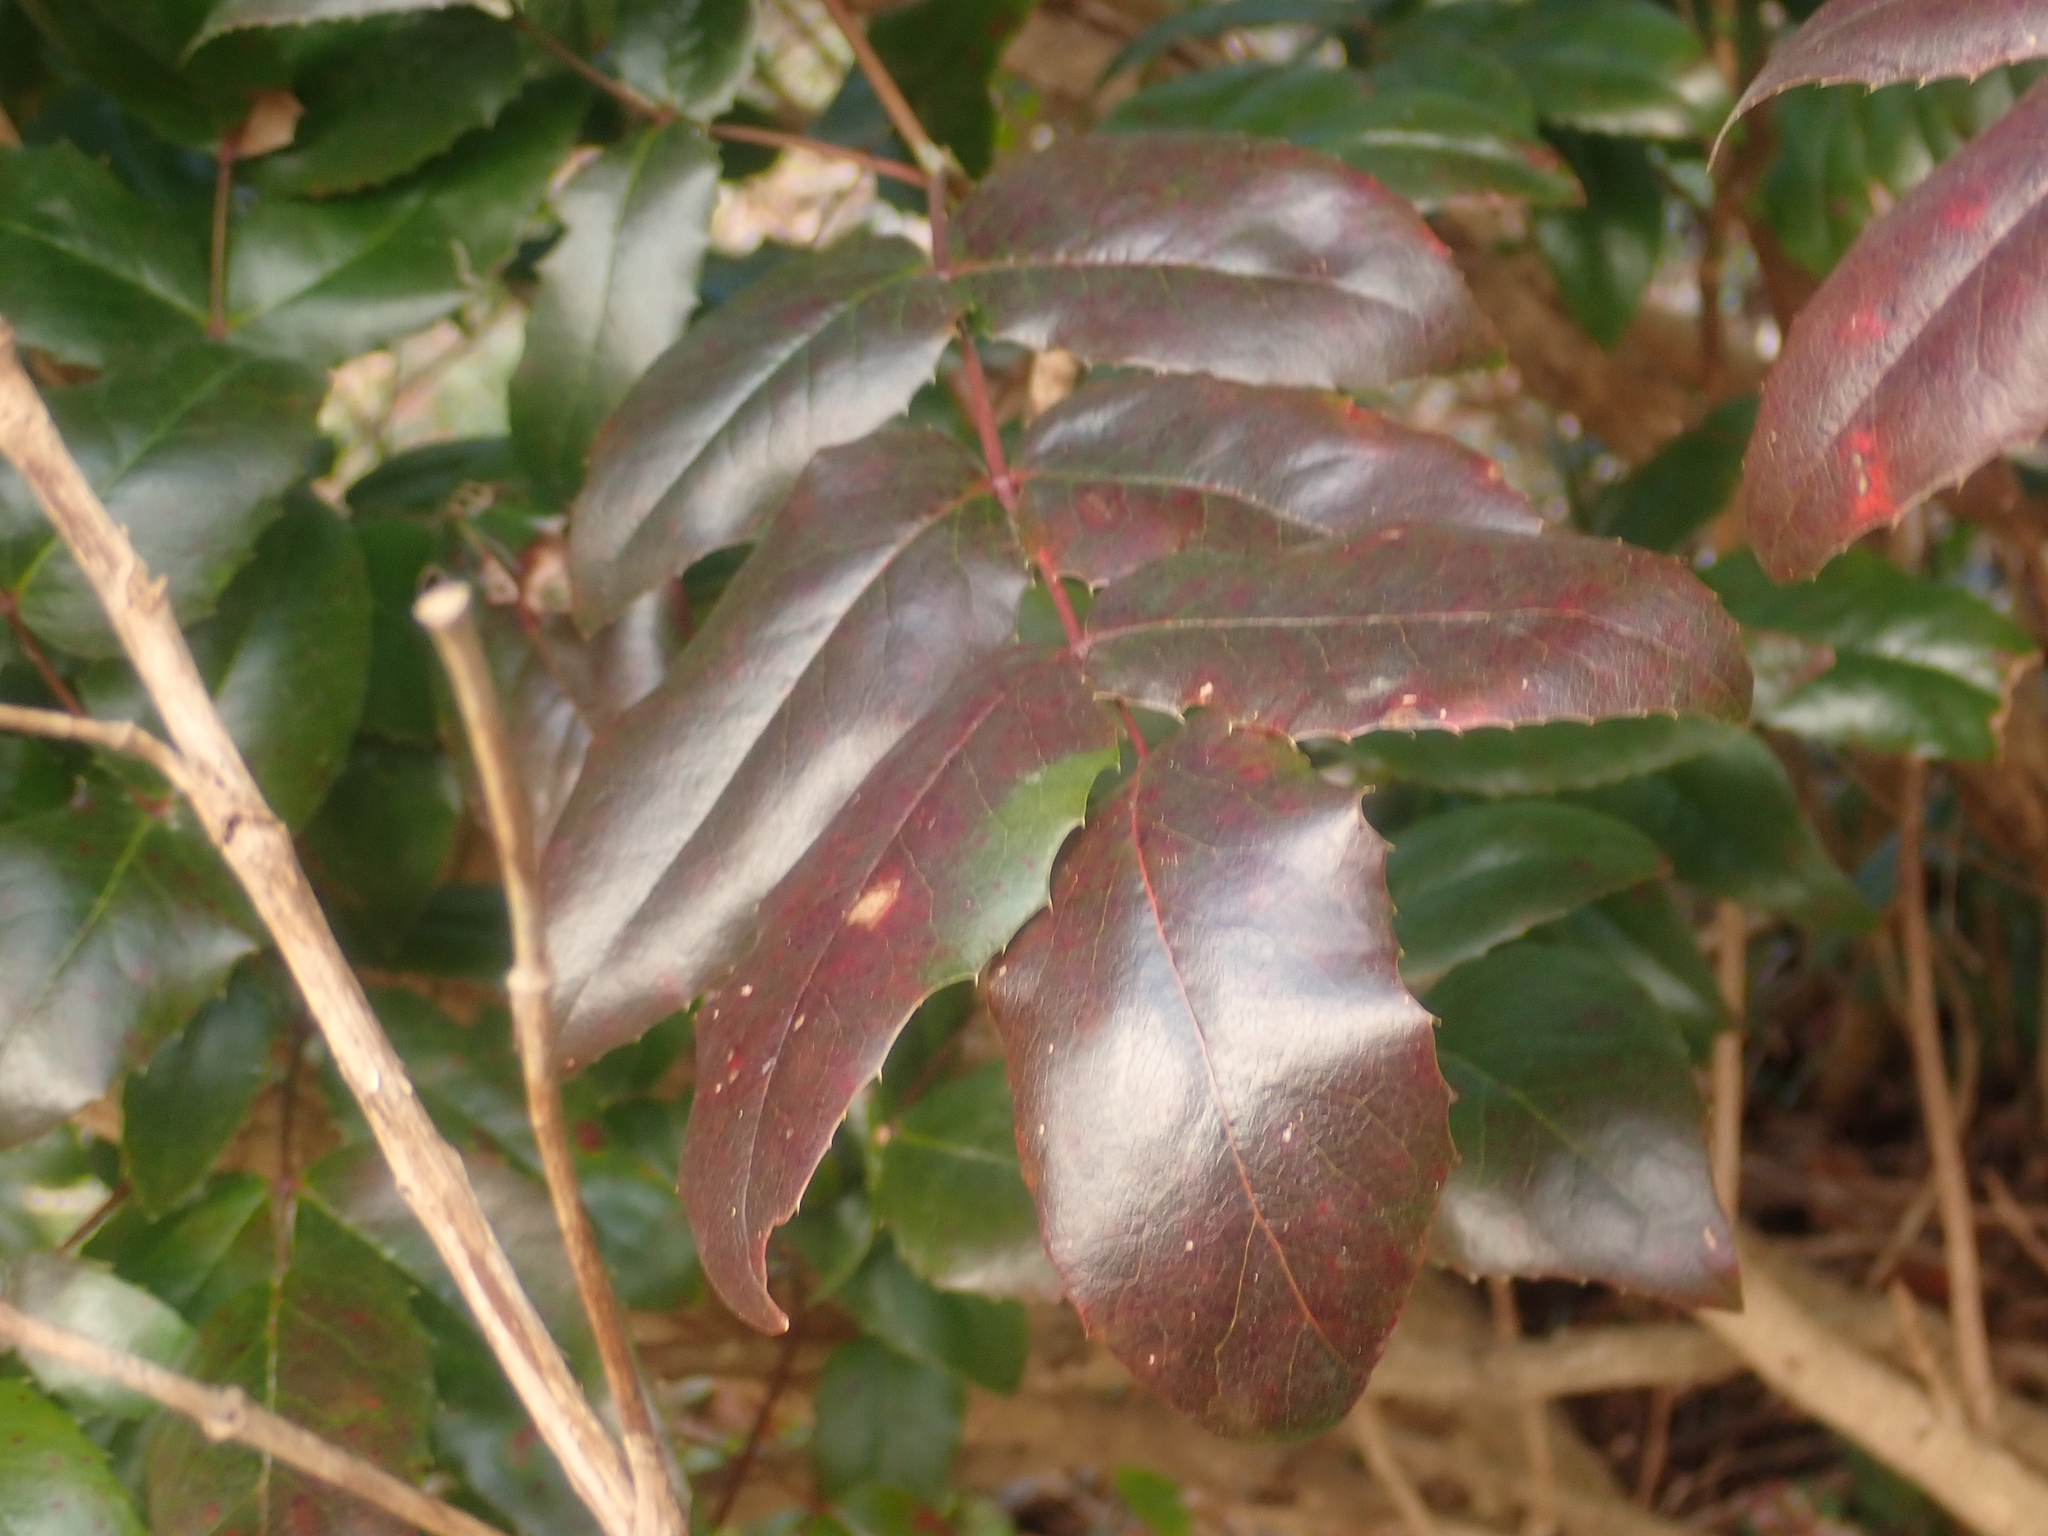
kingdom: Plantae
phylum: Tracheophyta
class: Magnoliopsida
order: Ranunculales
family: Berberidaceae
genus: Mahonia
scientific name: Mahonia aquifolium
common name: Oregon-grape
